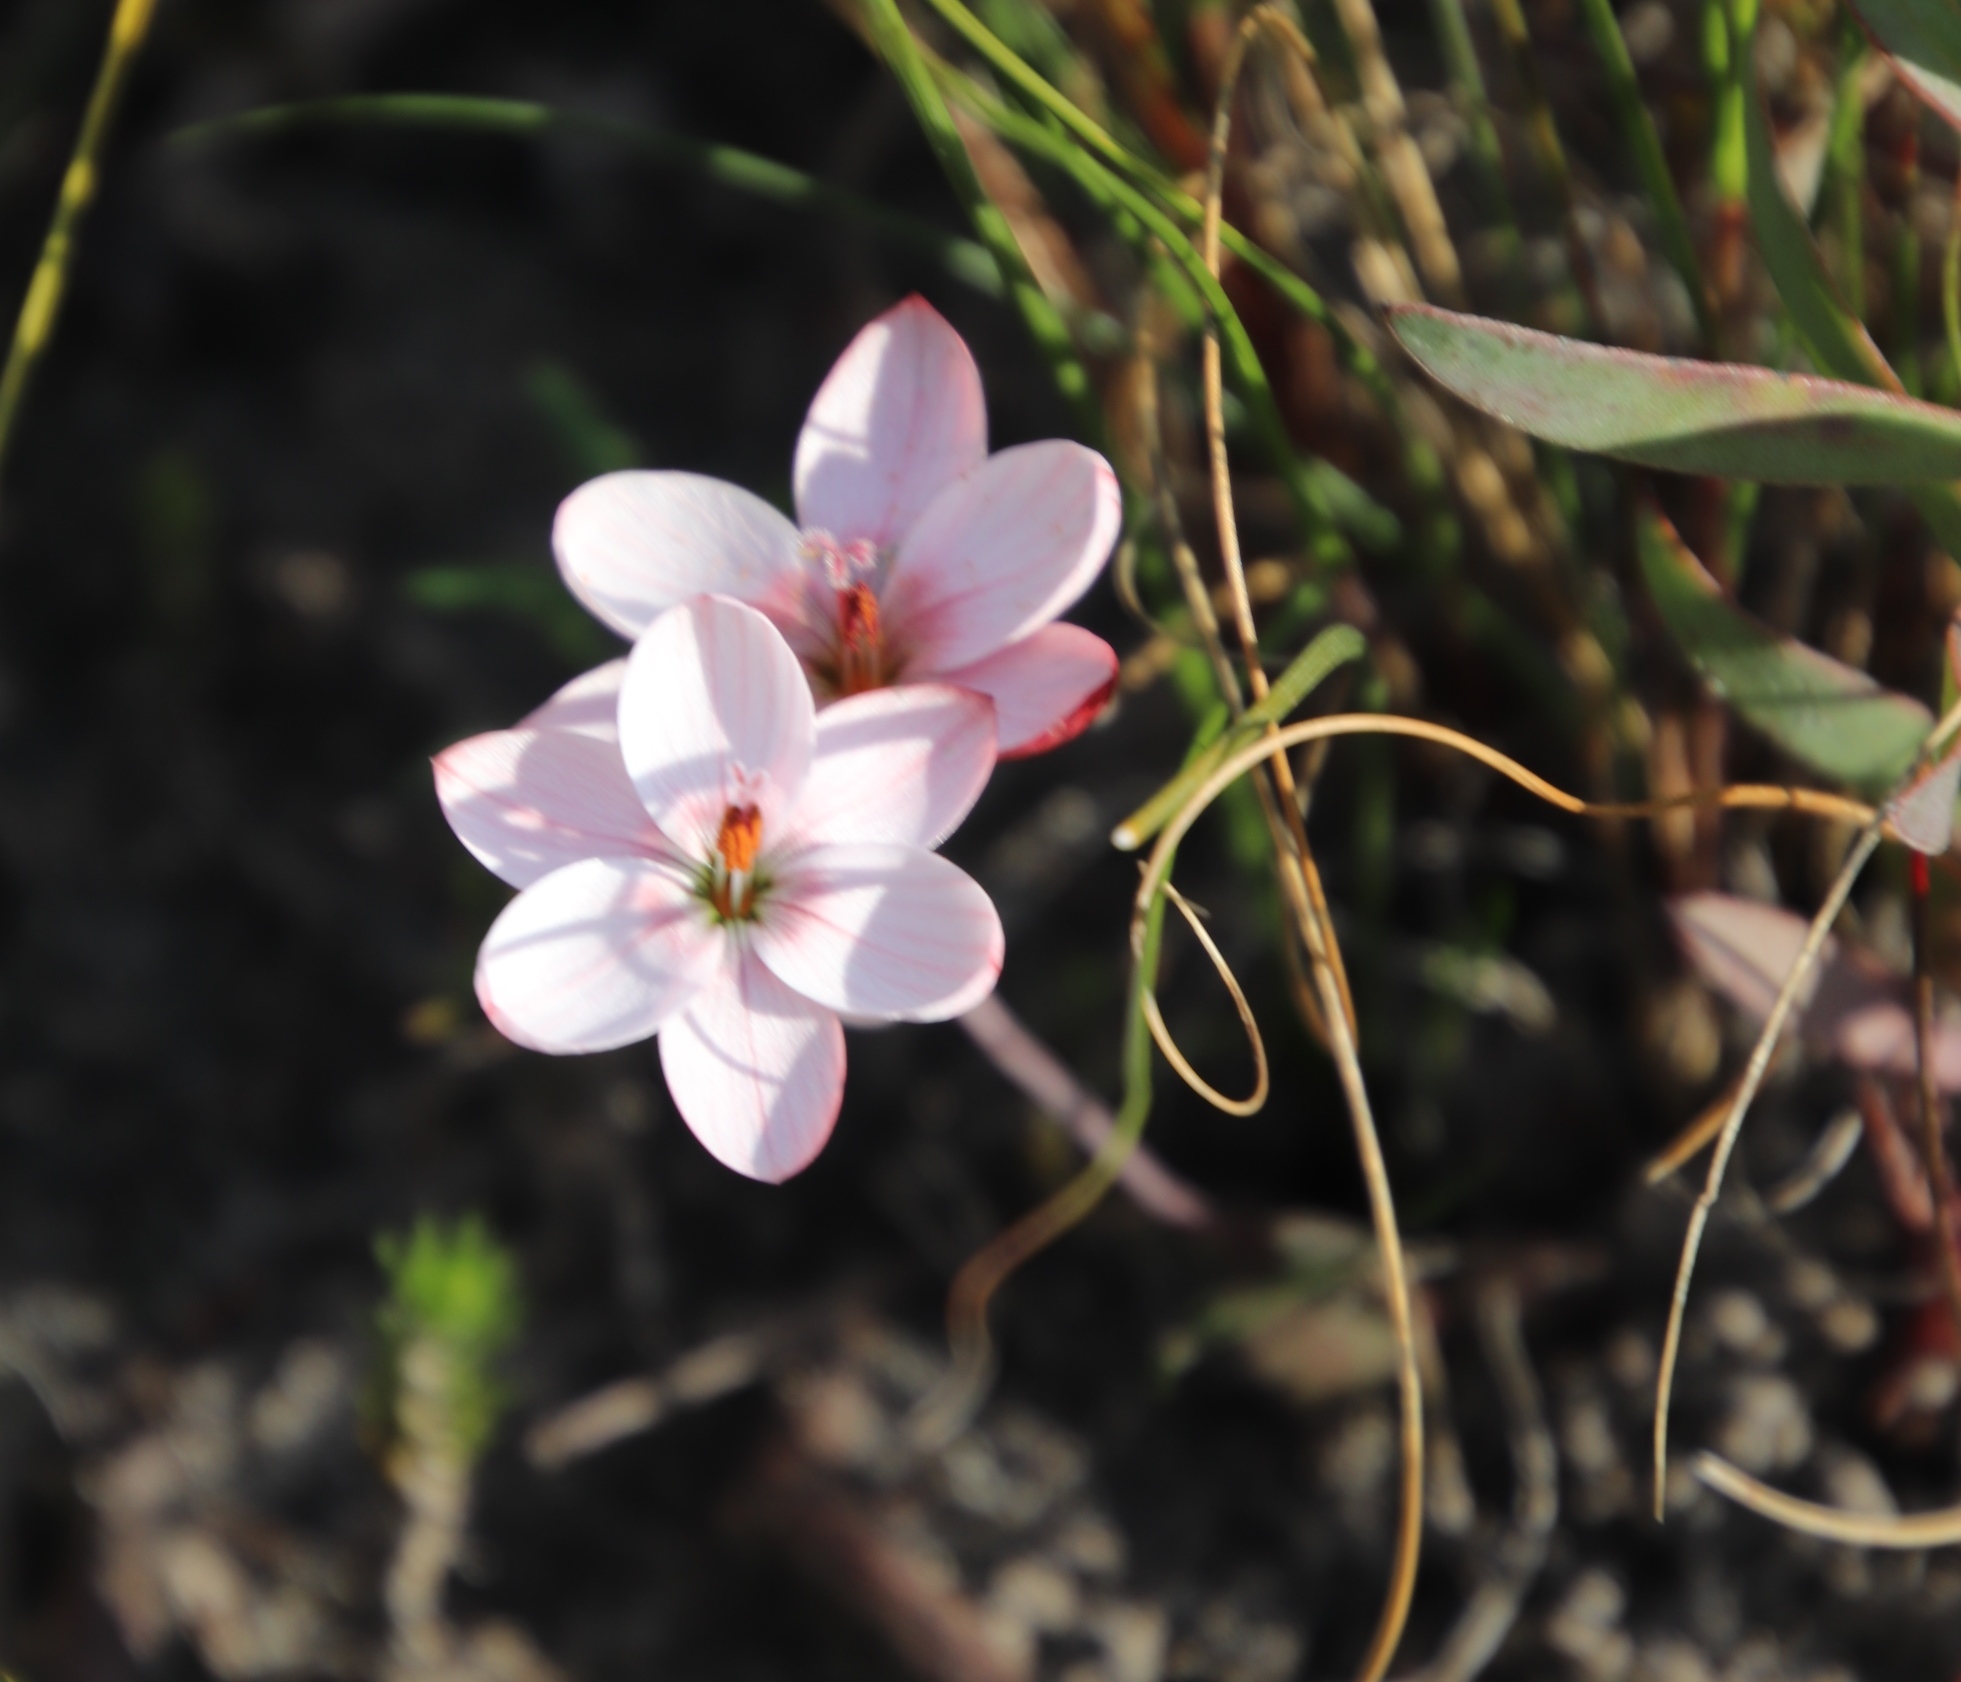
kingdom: Plantae
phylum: Tracheophyta
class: Liliopsida
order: Asparagales
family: Iridaceae
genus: Geissorhiza
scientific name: Geissorhiza ovata
